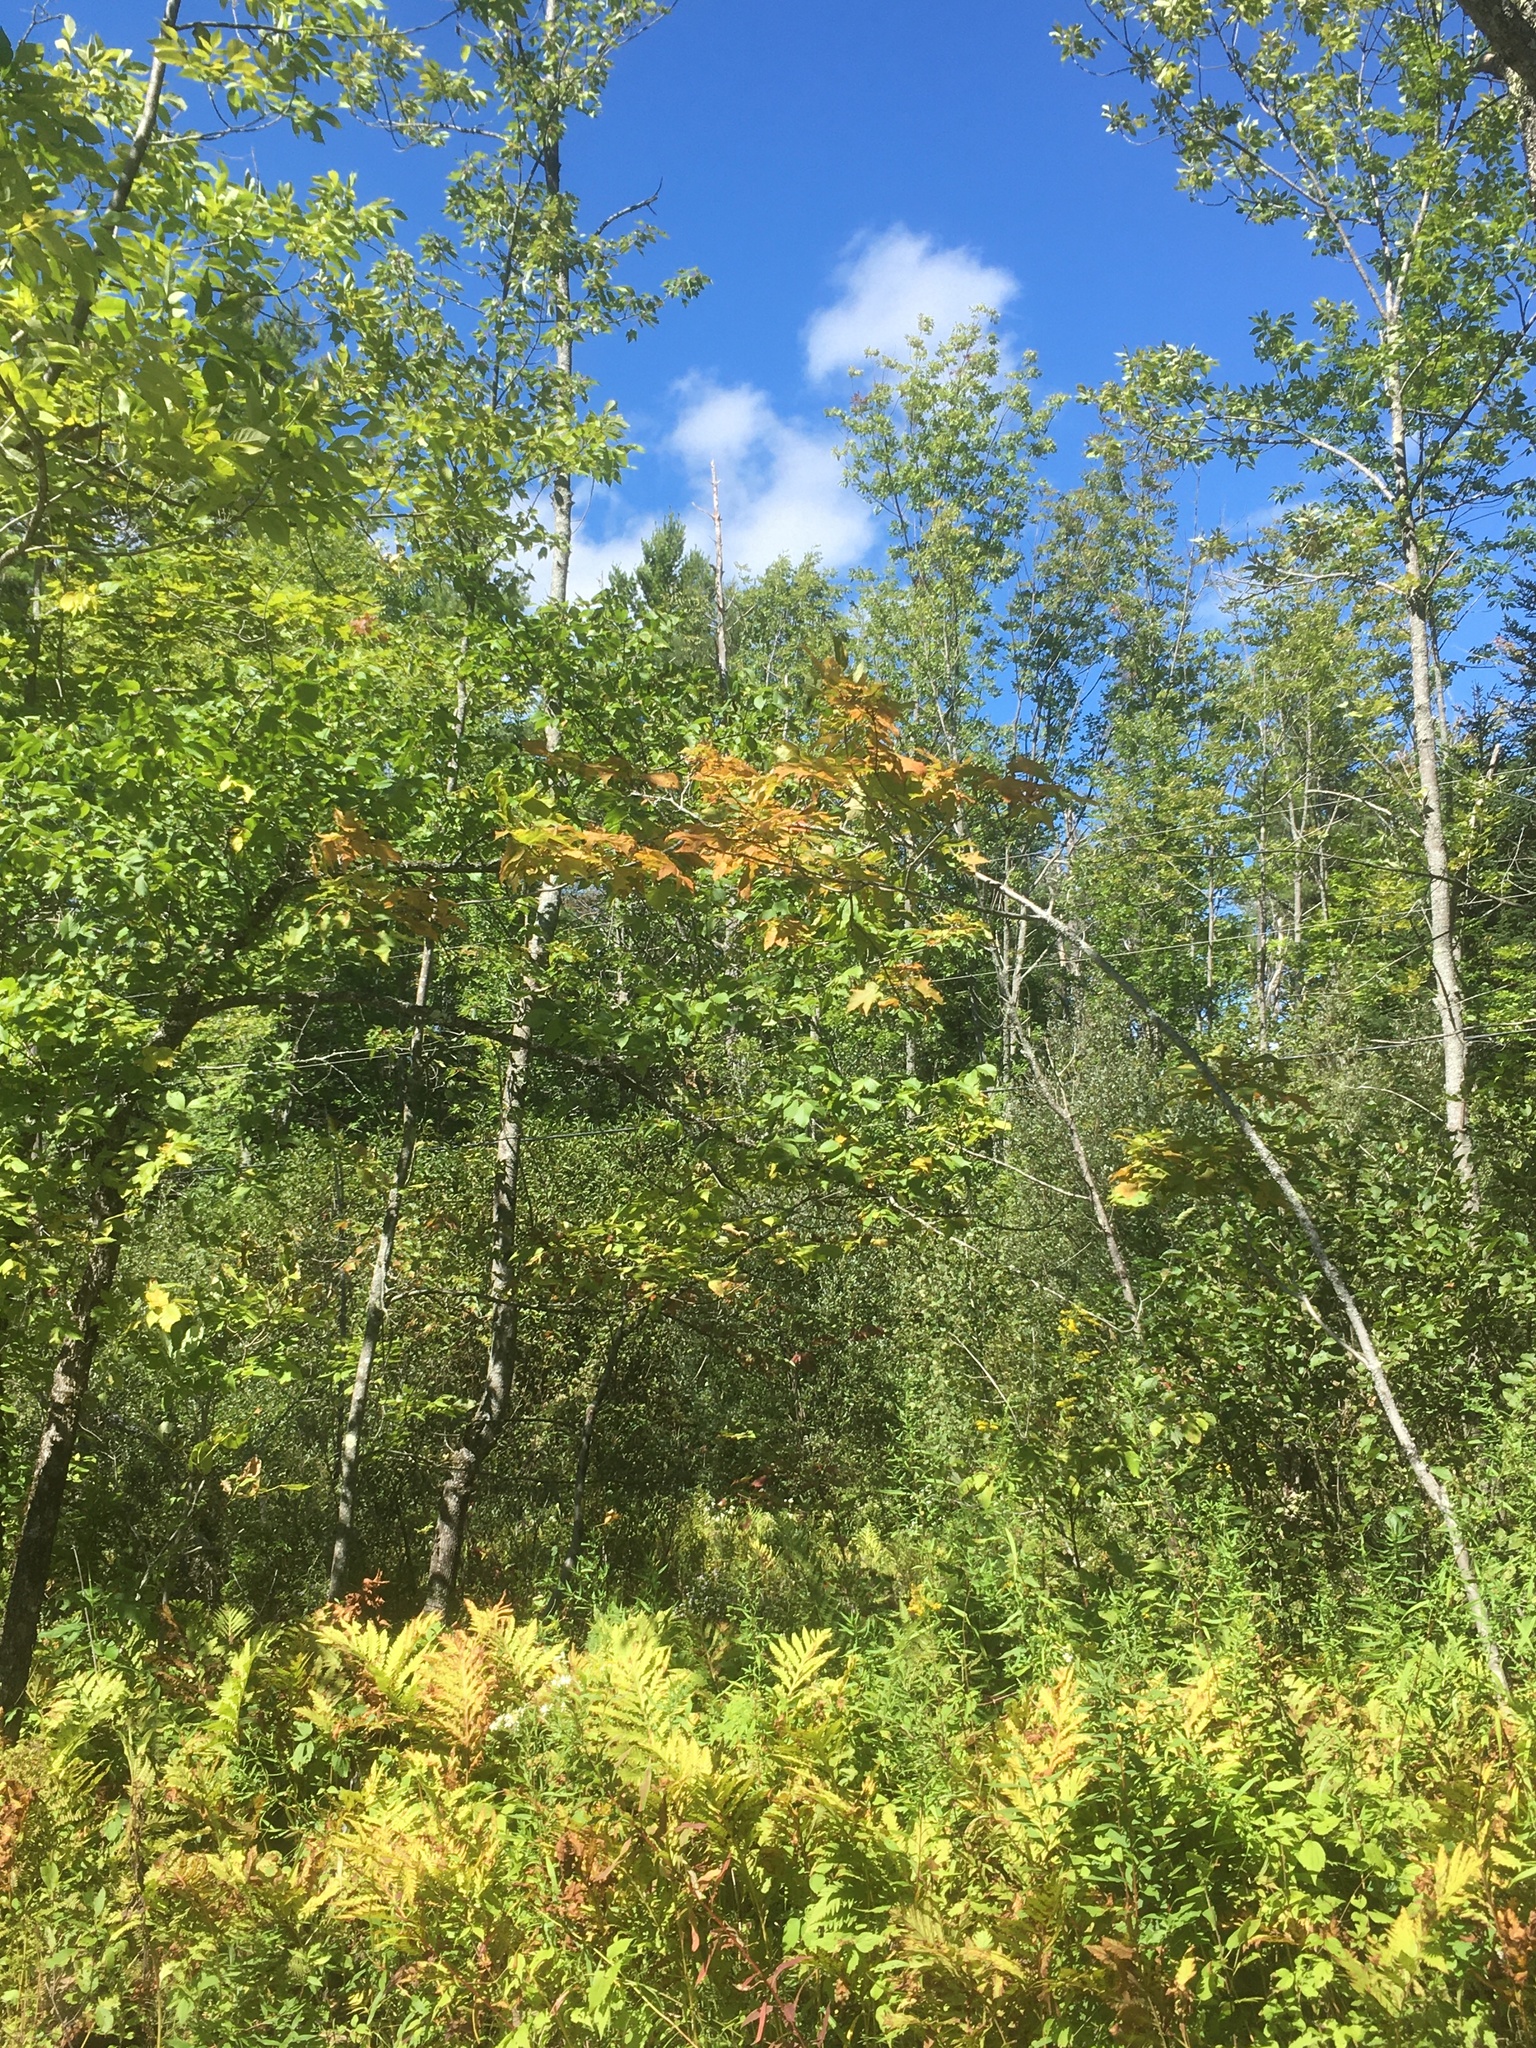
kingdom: Plantae
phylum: Tracheophyta
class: Polypodiopsida
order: Polypodiales
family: Onocleaceae
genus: Onoclea
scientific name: Onoclea sensibilis
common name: Sensitive fern
